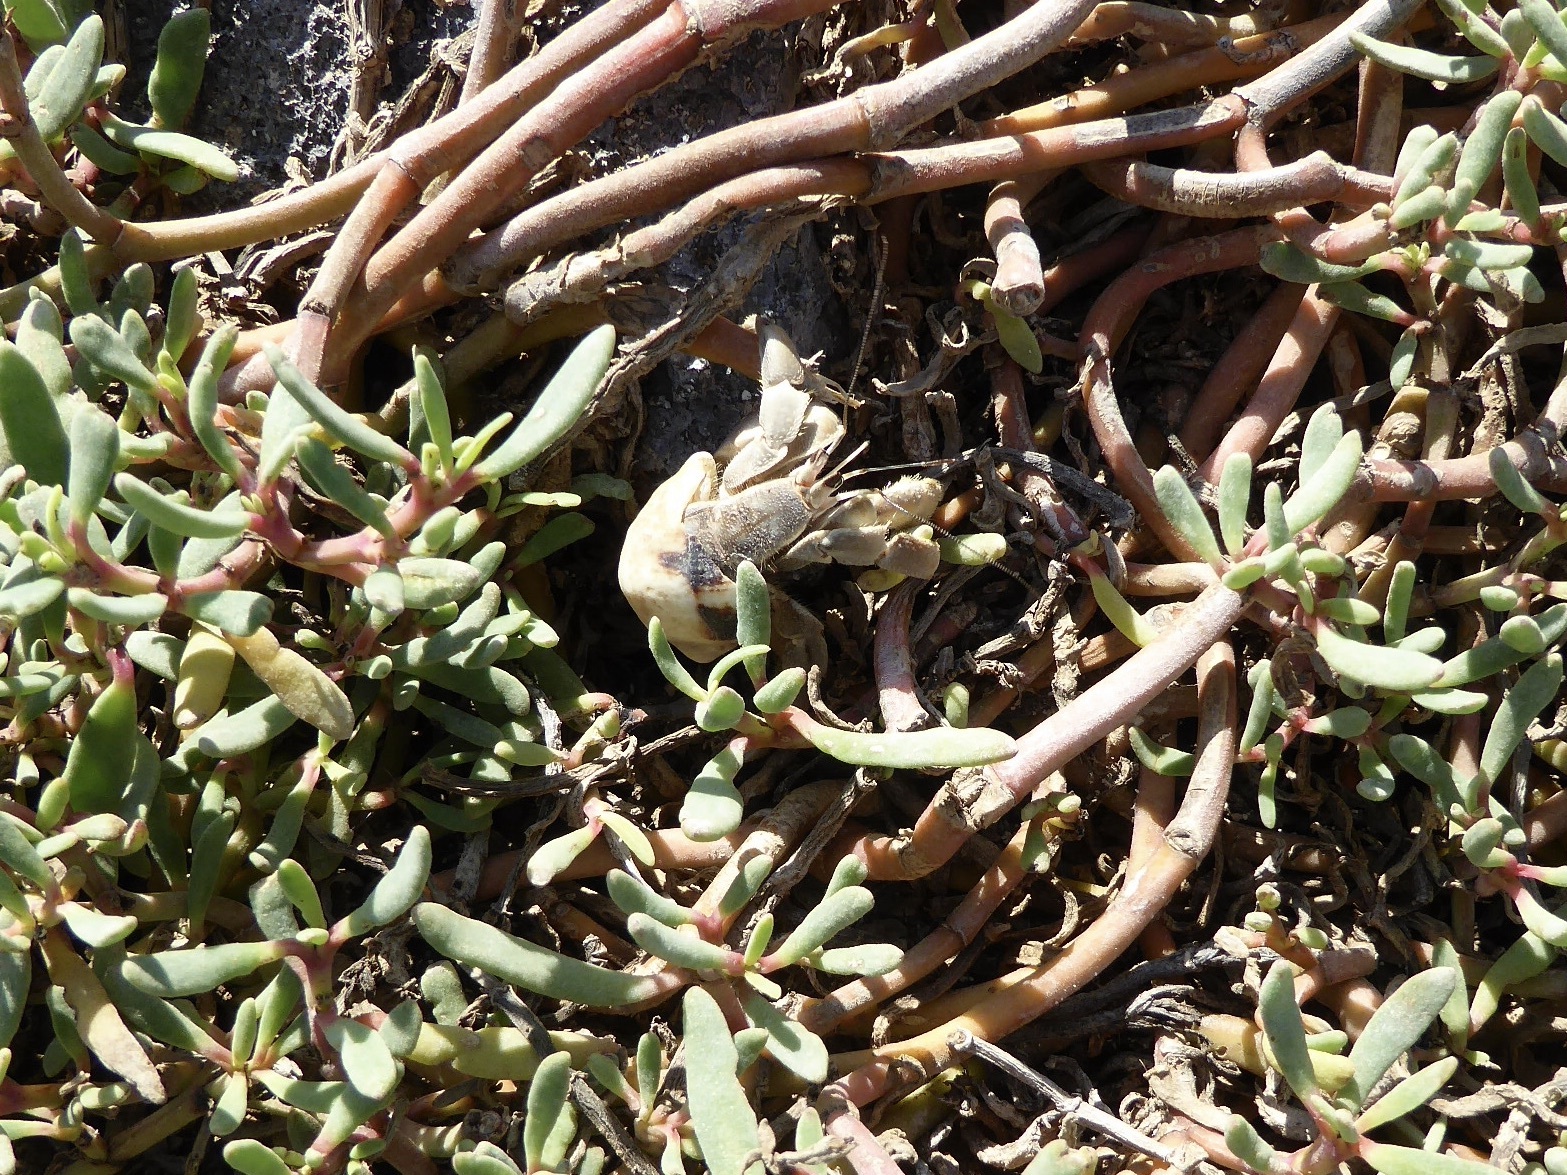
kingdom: Animalia
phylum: Arthropoda
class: Malacostraca
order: Decapoda
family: Coenobitidae
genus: Coenobita
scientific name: Coenobita compressus
